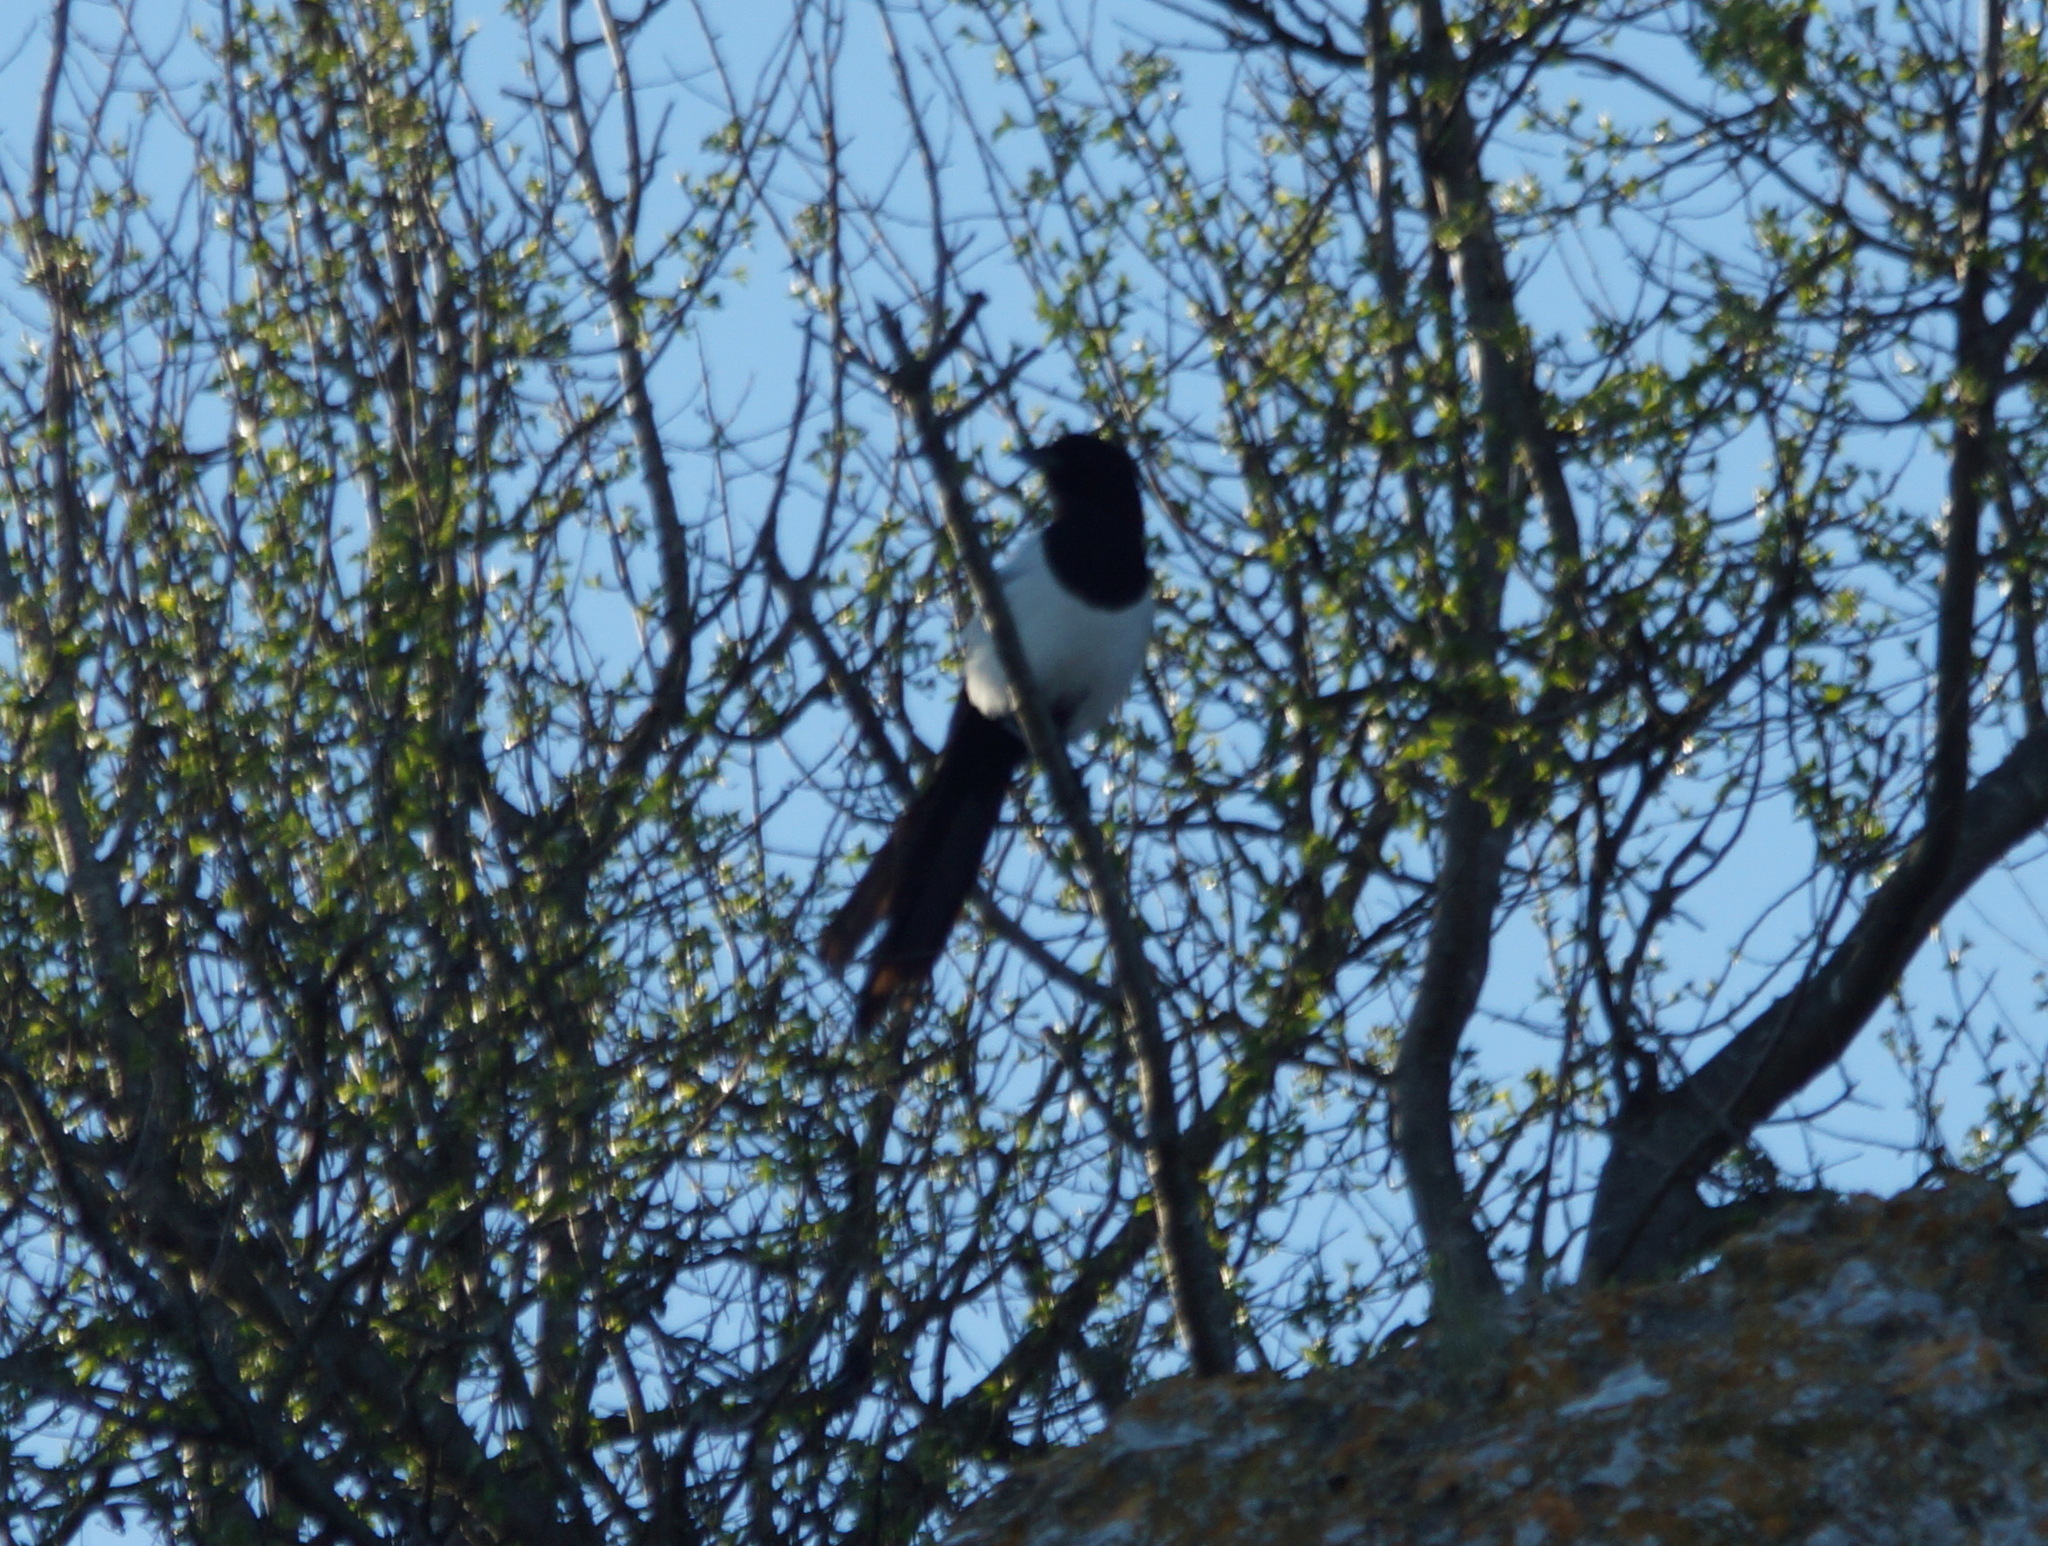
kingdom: Animalia
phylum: Chordata
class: Aves
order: Passeriformes
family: Corvidae
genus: Pica
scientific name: Pica pica
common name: Eurasian magpie
